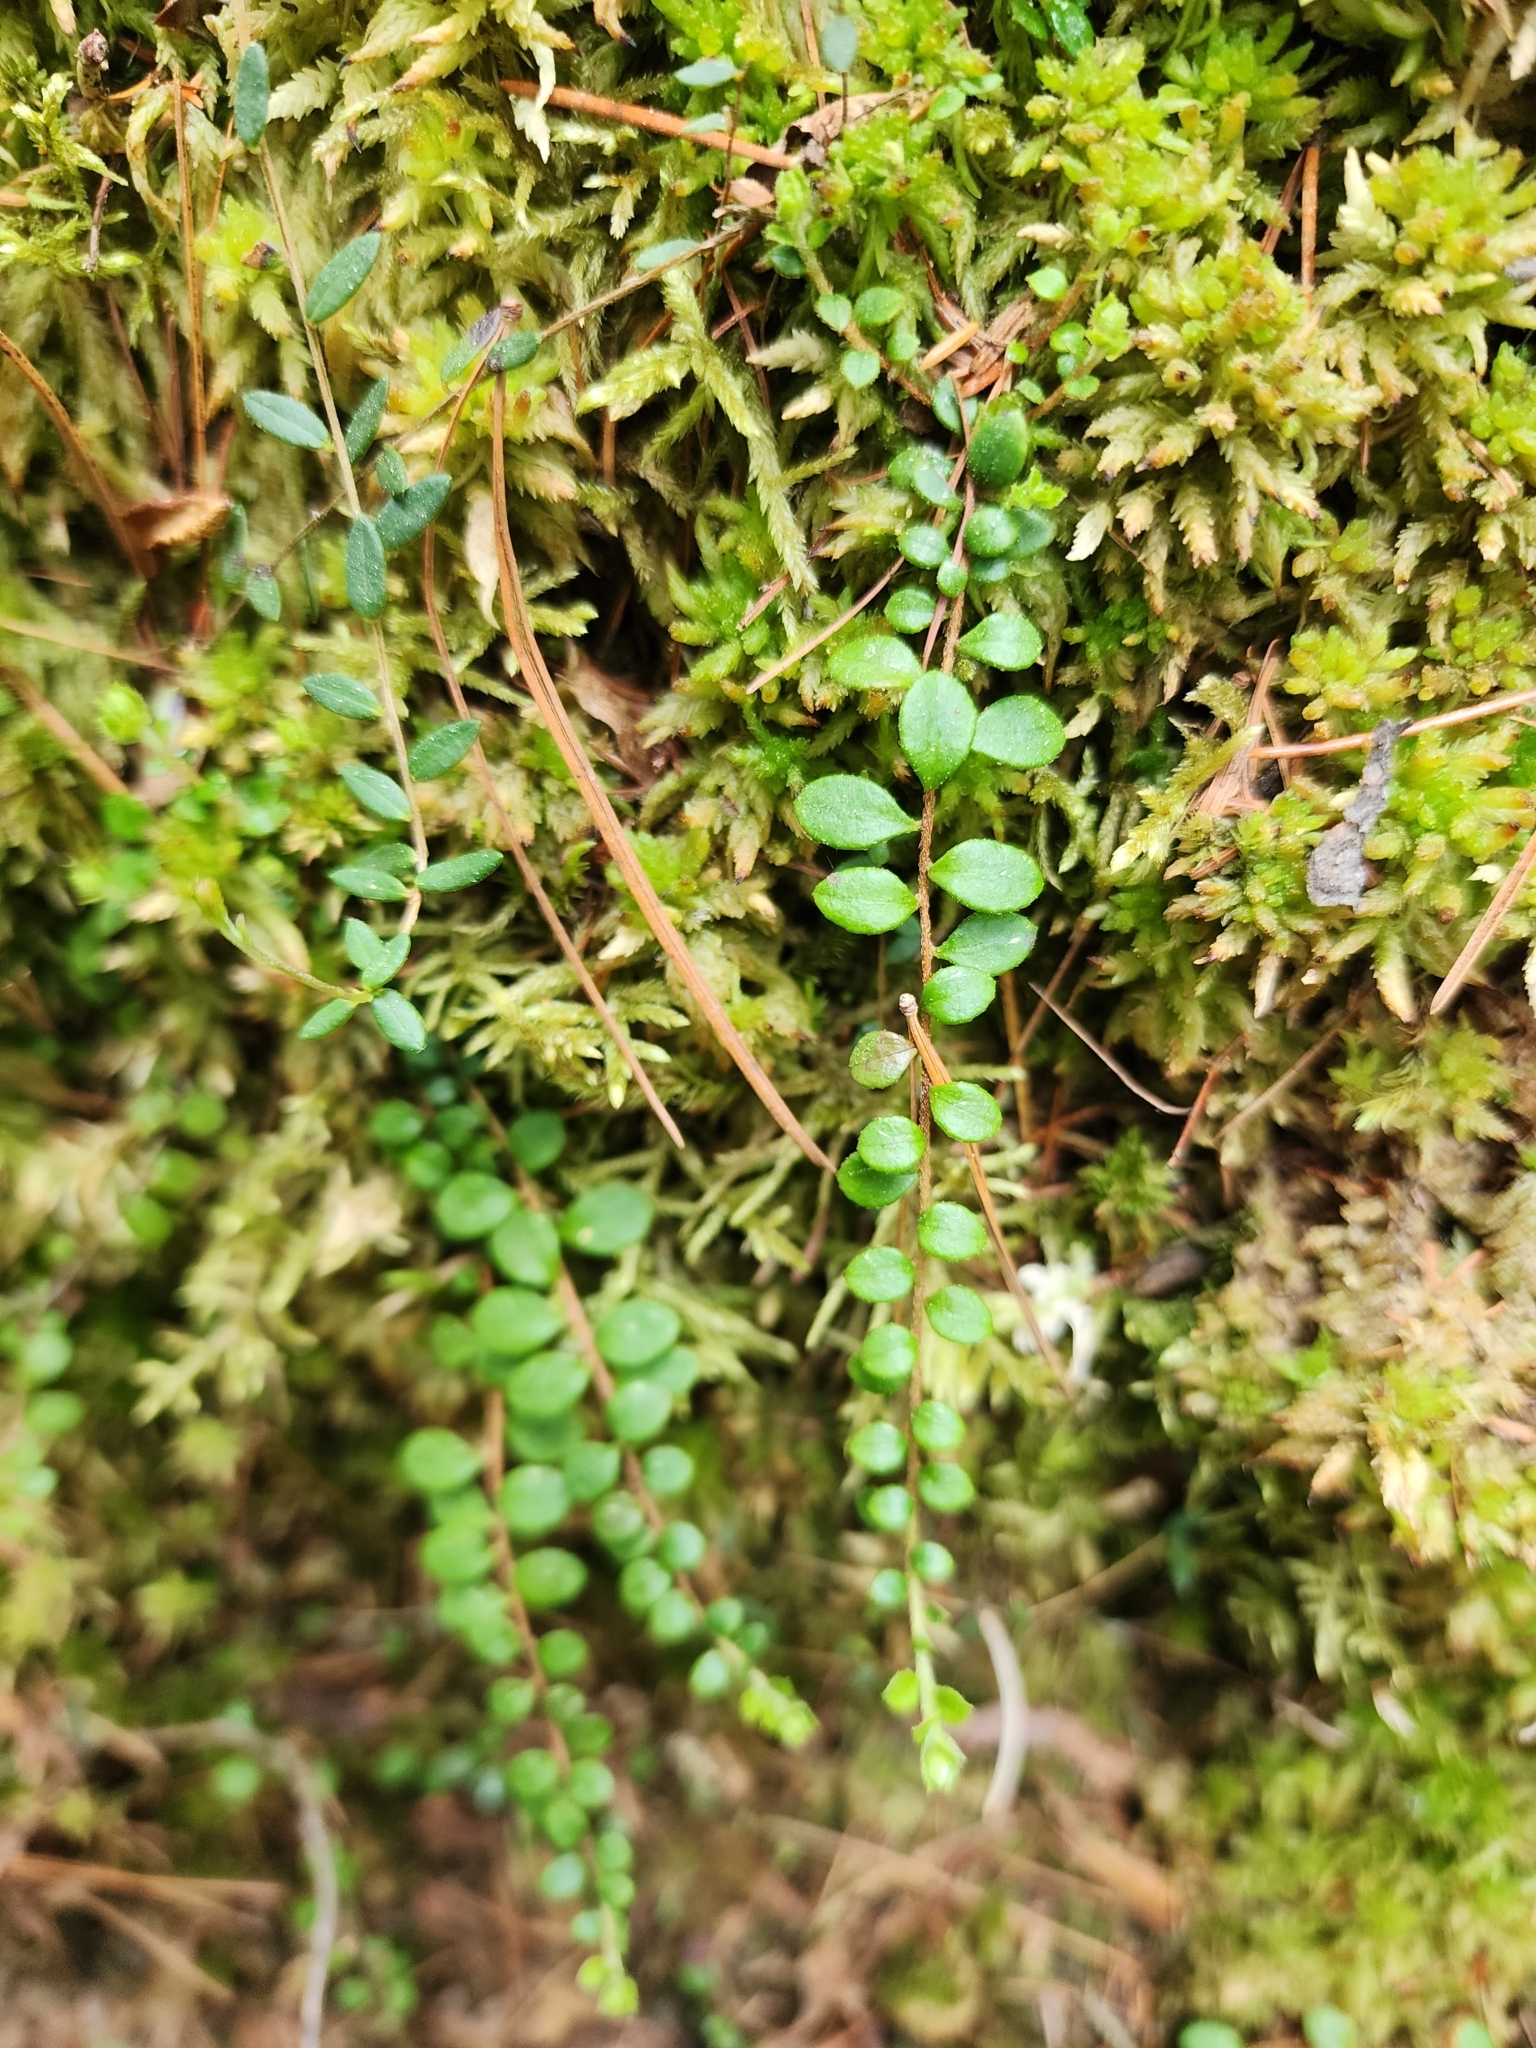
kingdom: Plantae
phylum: Tracheophyta
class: Magnoliopsida
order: Ericales
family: Ericaceae
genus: Gaultheria
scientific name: Gaultheria hispidula
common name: Cancer wintergreen
